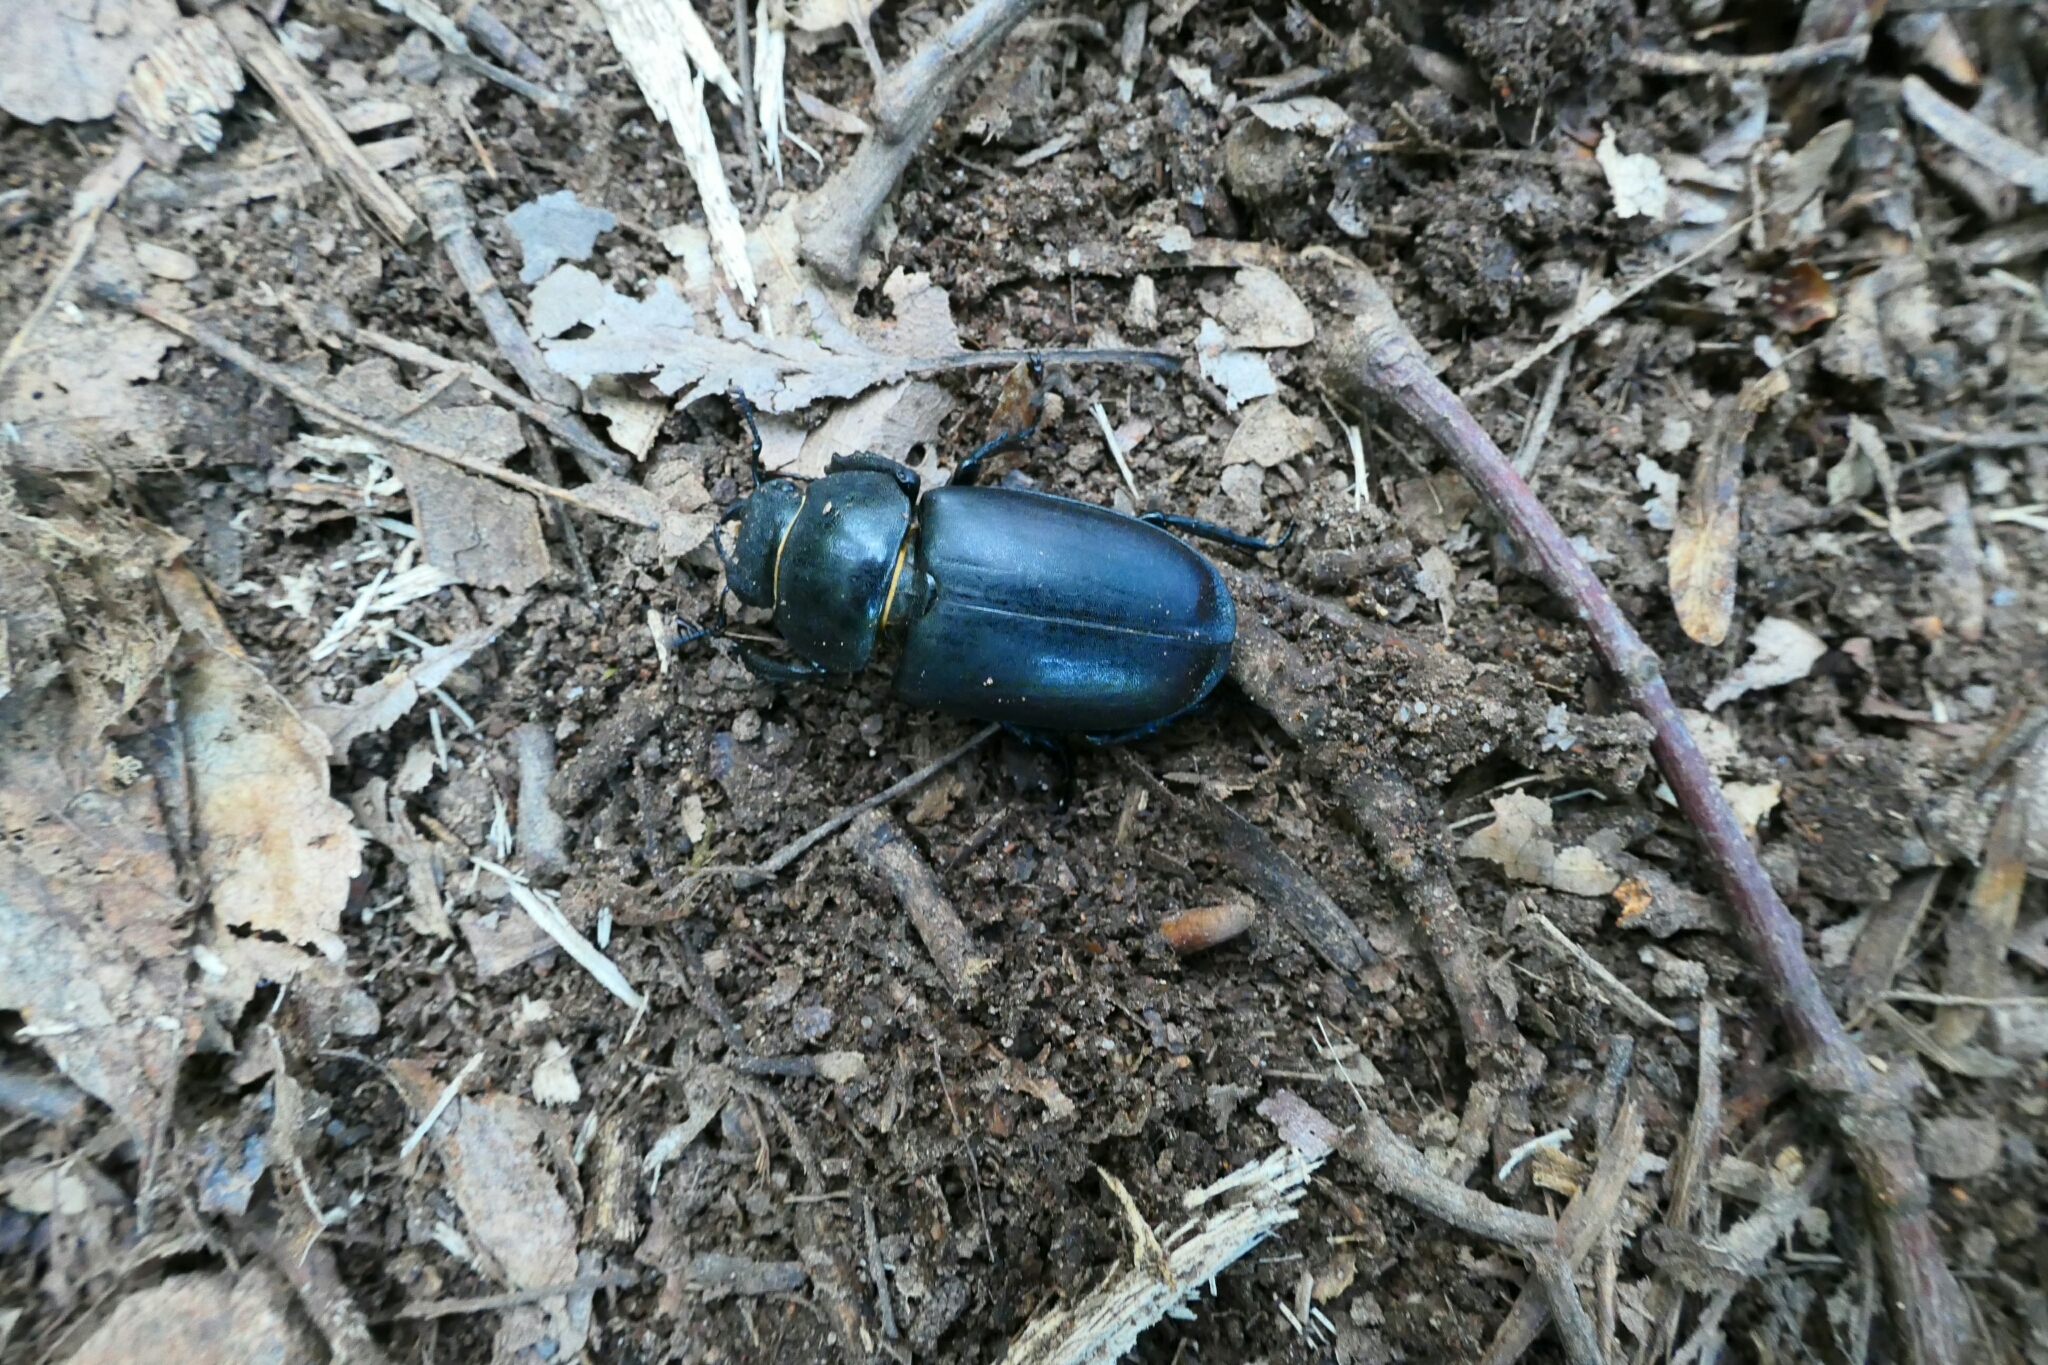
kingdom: Animalia
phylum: Arthropoda
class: Insecta
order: Coleoptera
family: Lucanidae
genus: Lucanus
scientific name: Lucanus cervus
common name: Stag beetle
